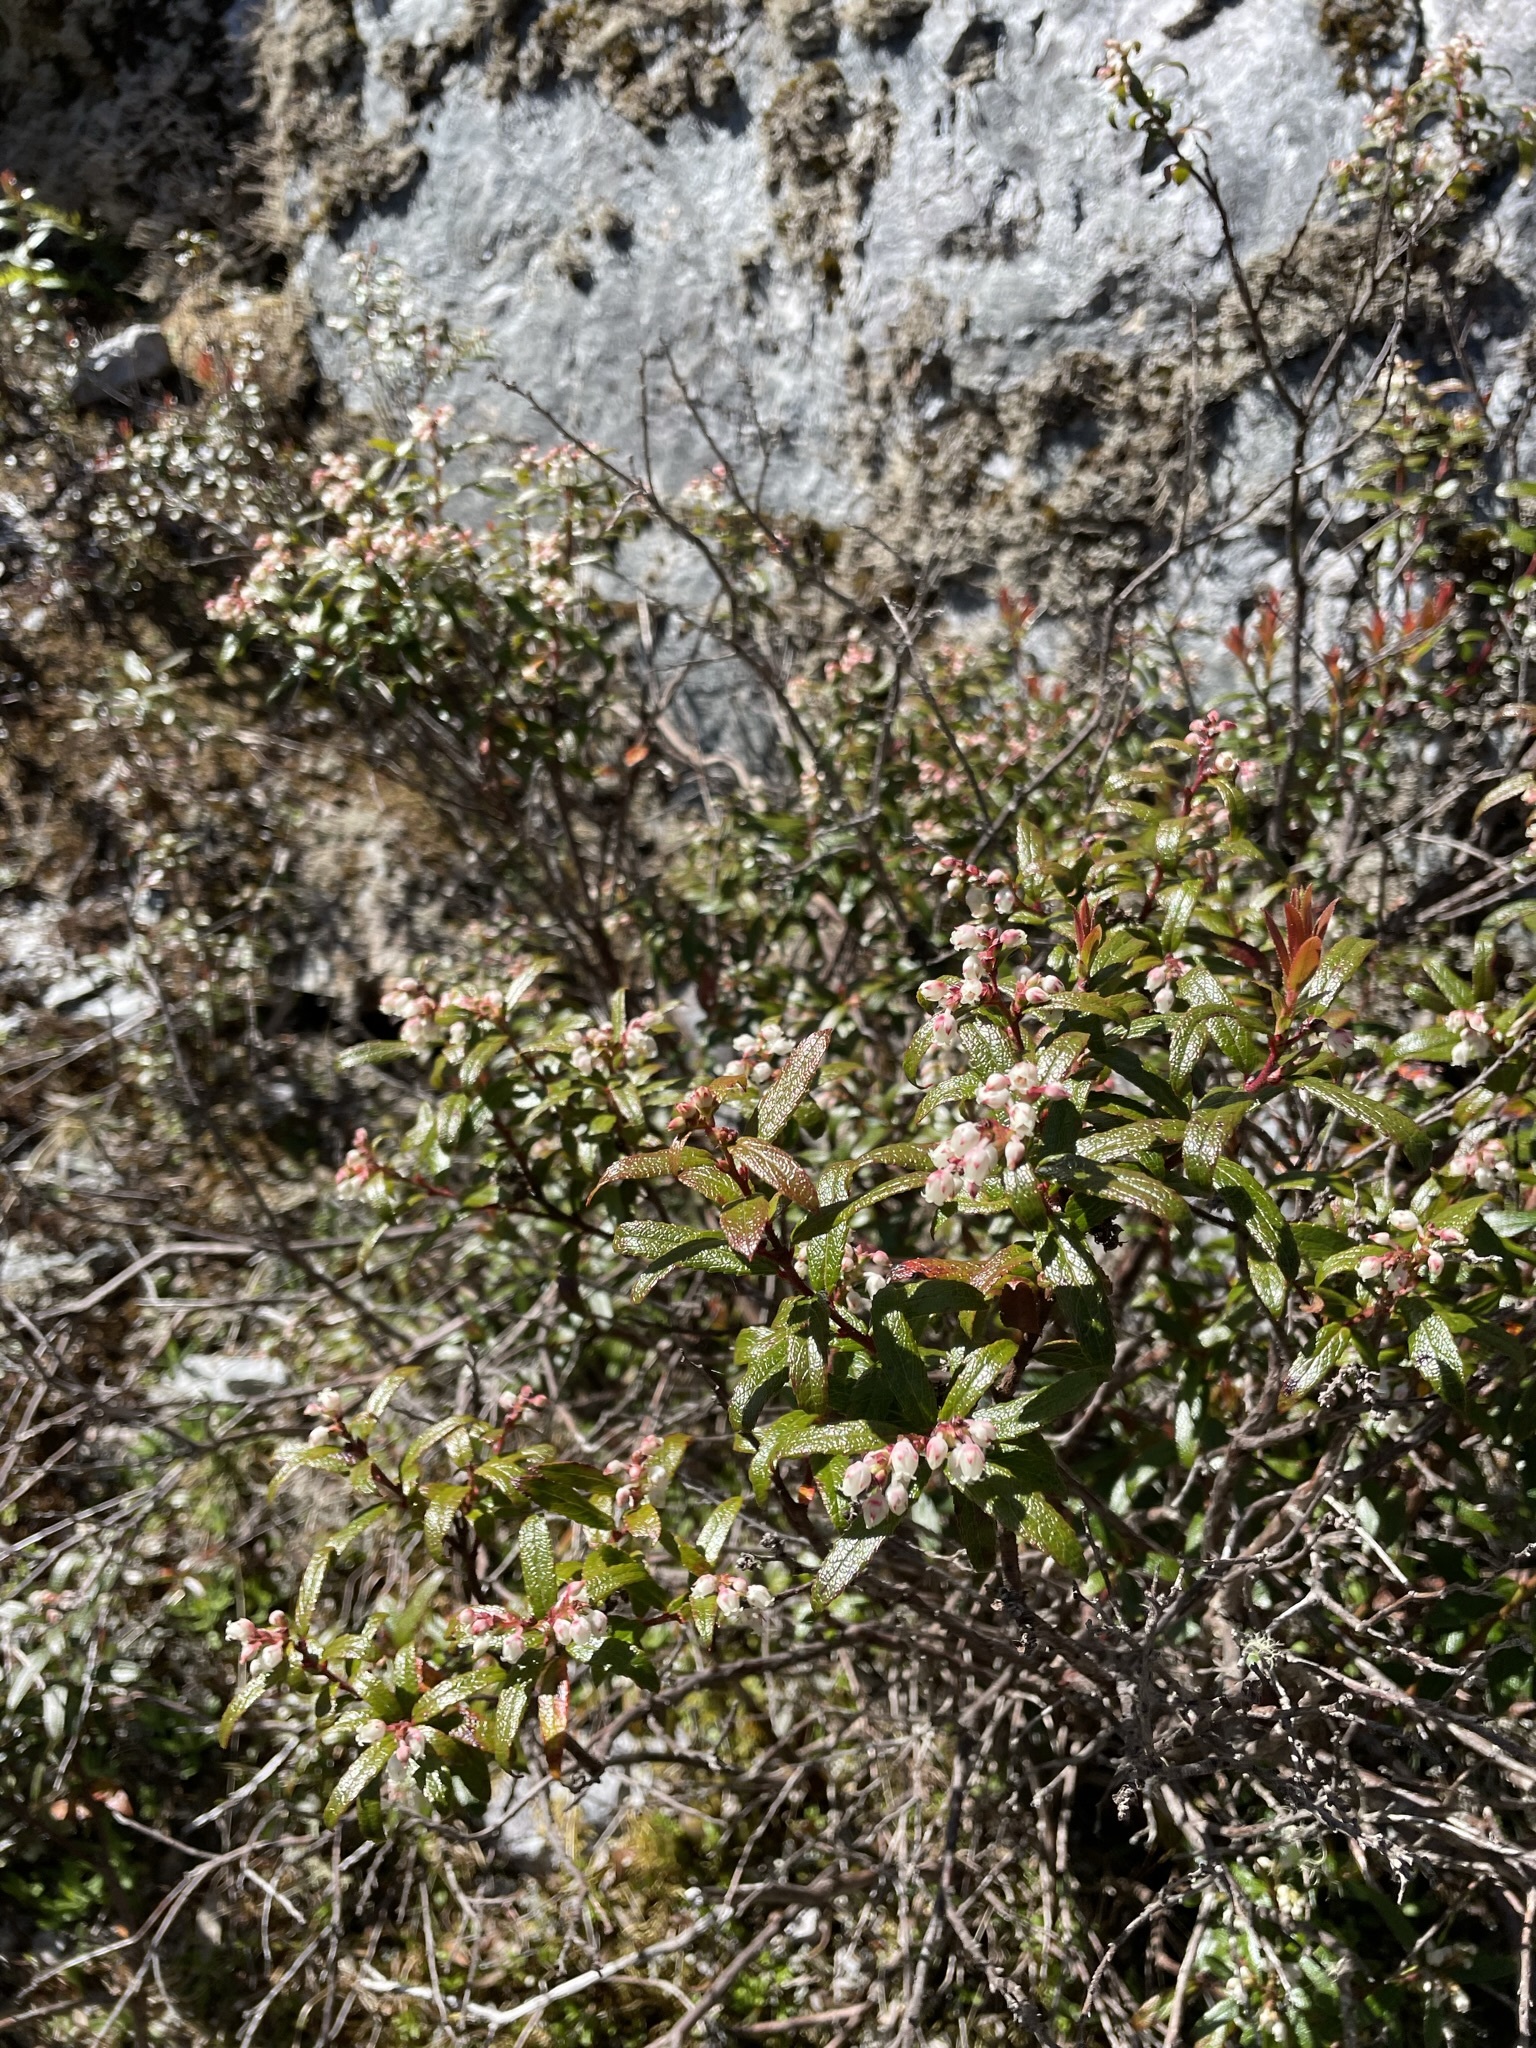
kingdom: Plantae
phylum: Tracheophyta
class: Magnoliopsida
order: Ericales
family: Ericaceae
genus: Gaultheria
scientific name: Gaultheria hispida
